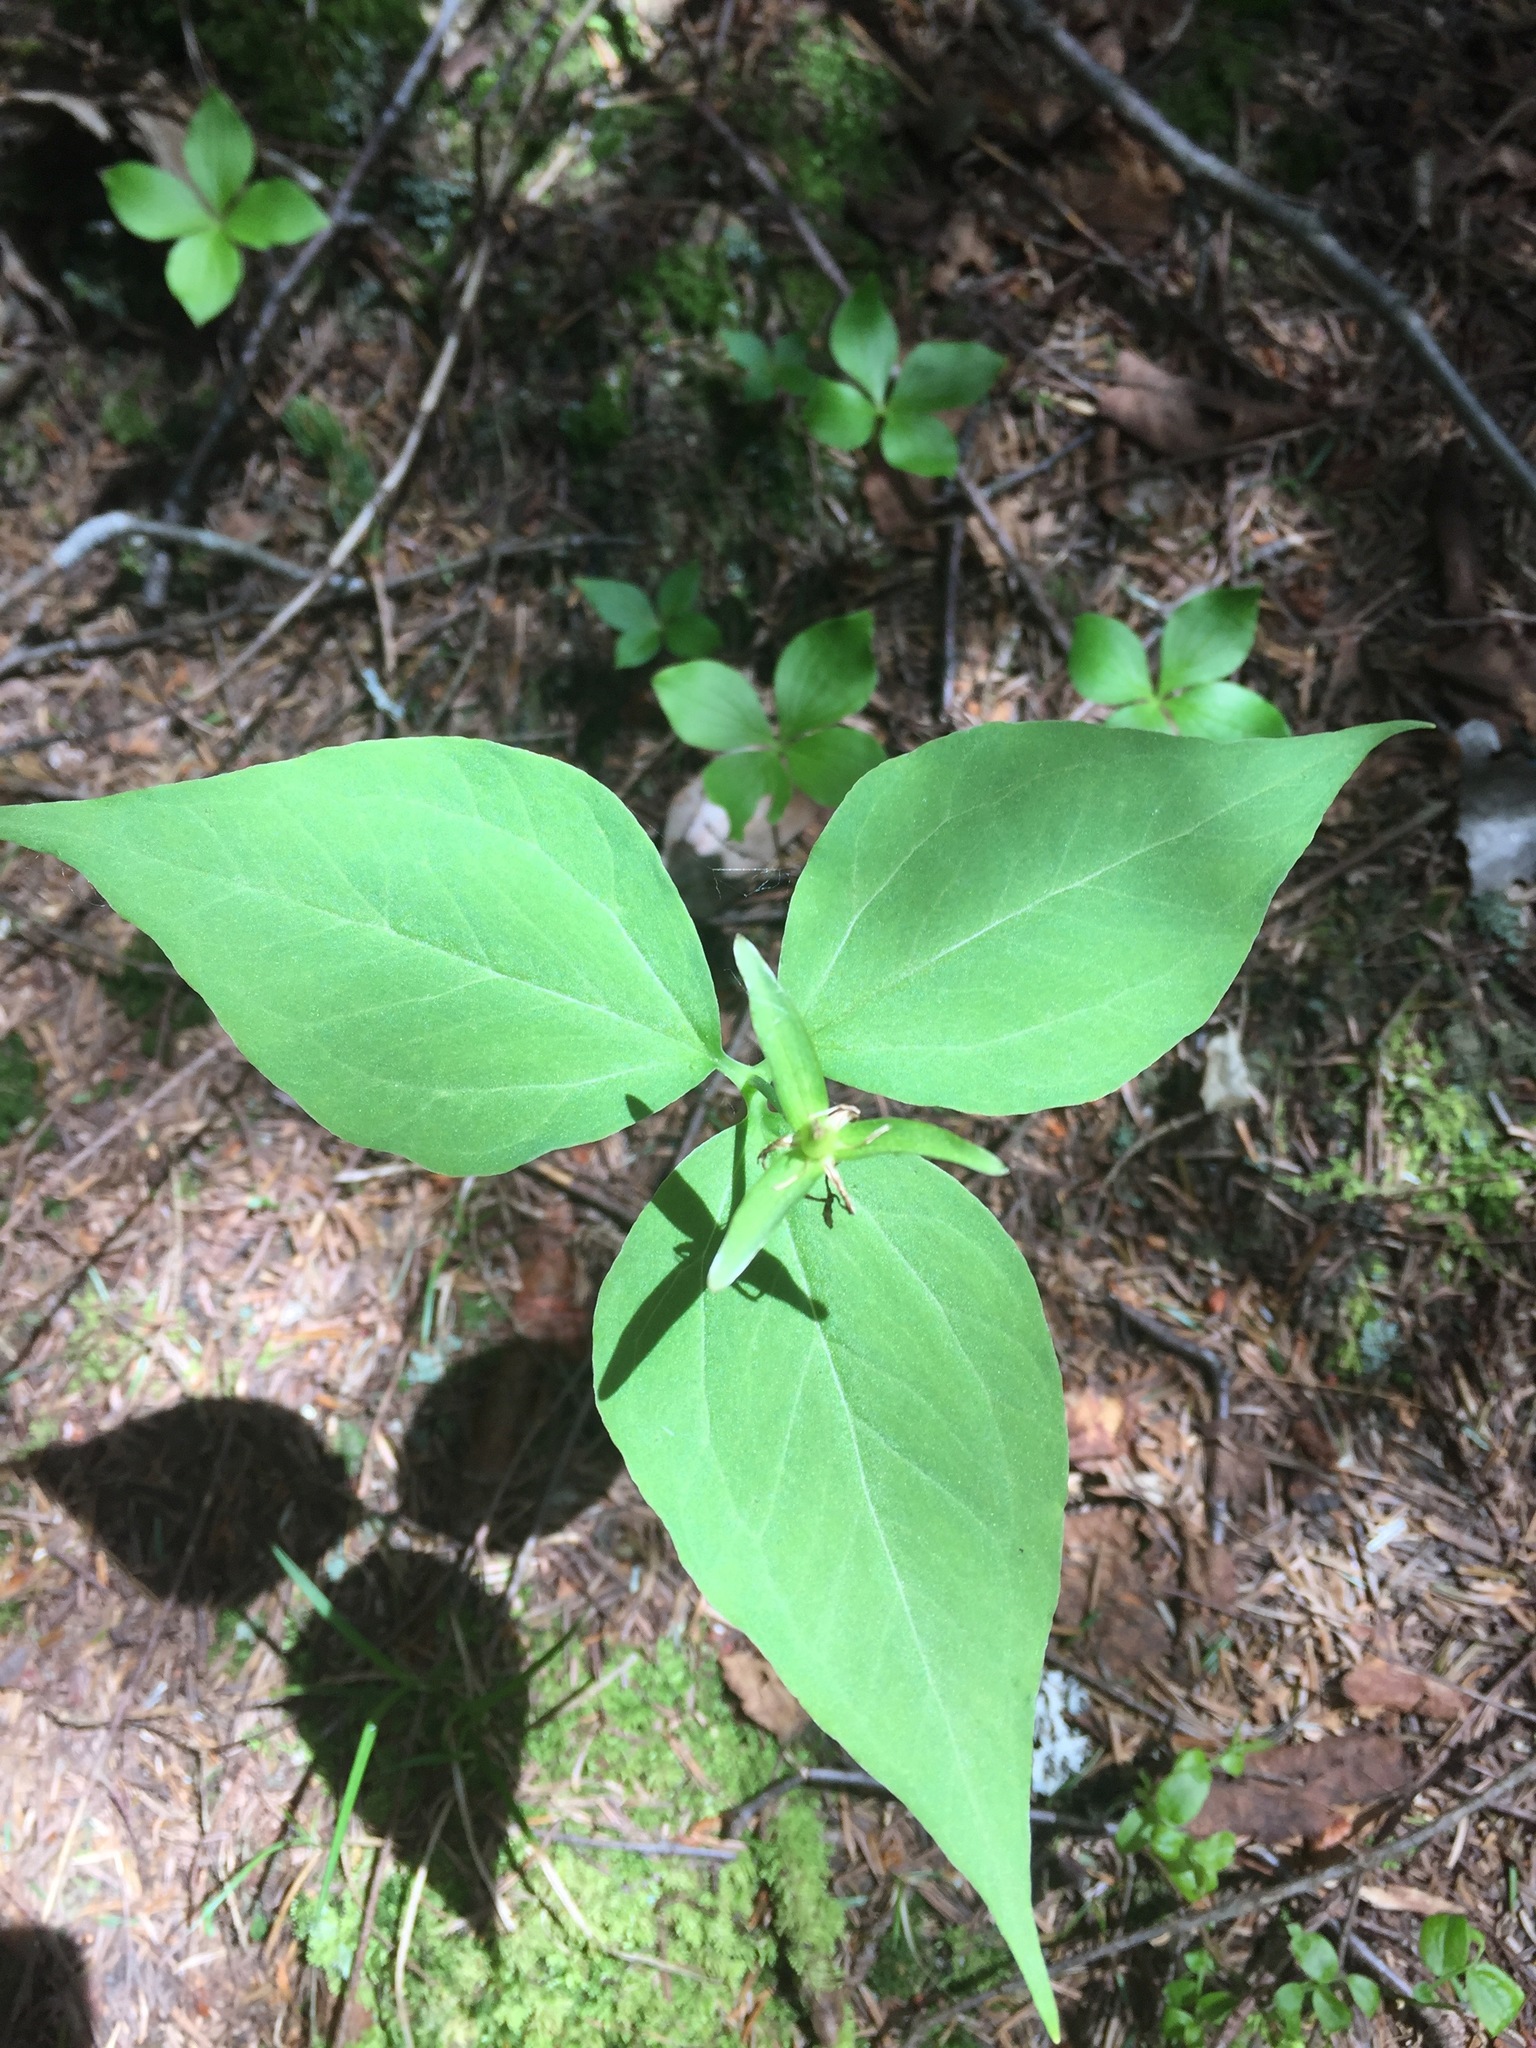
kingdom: Plantae
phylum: Tracheophyta
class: Liliopsida
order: Liliales
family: Melanthiaceae
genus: Trillium
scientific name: Trillium undulatum
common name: Paint trillium
